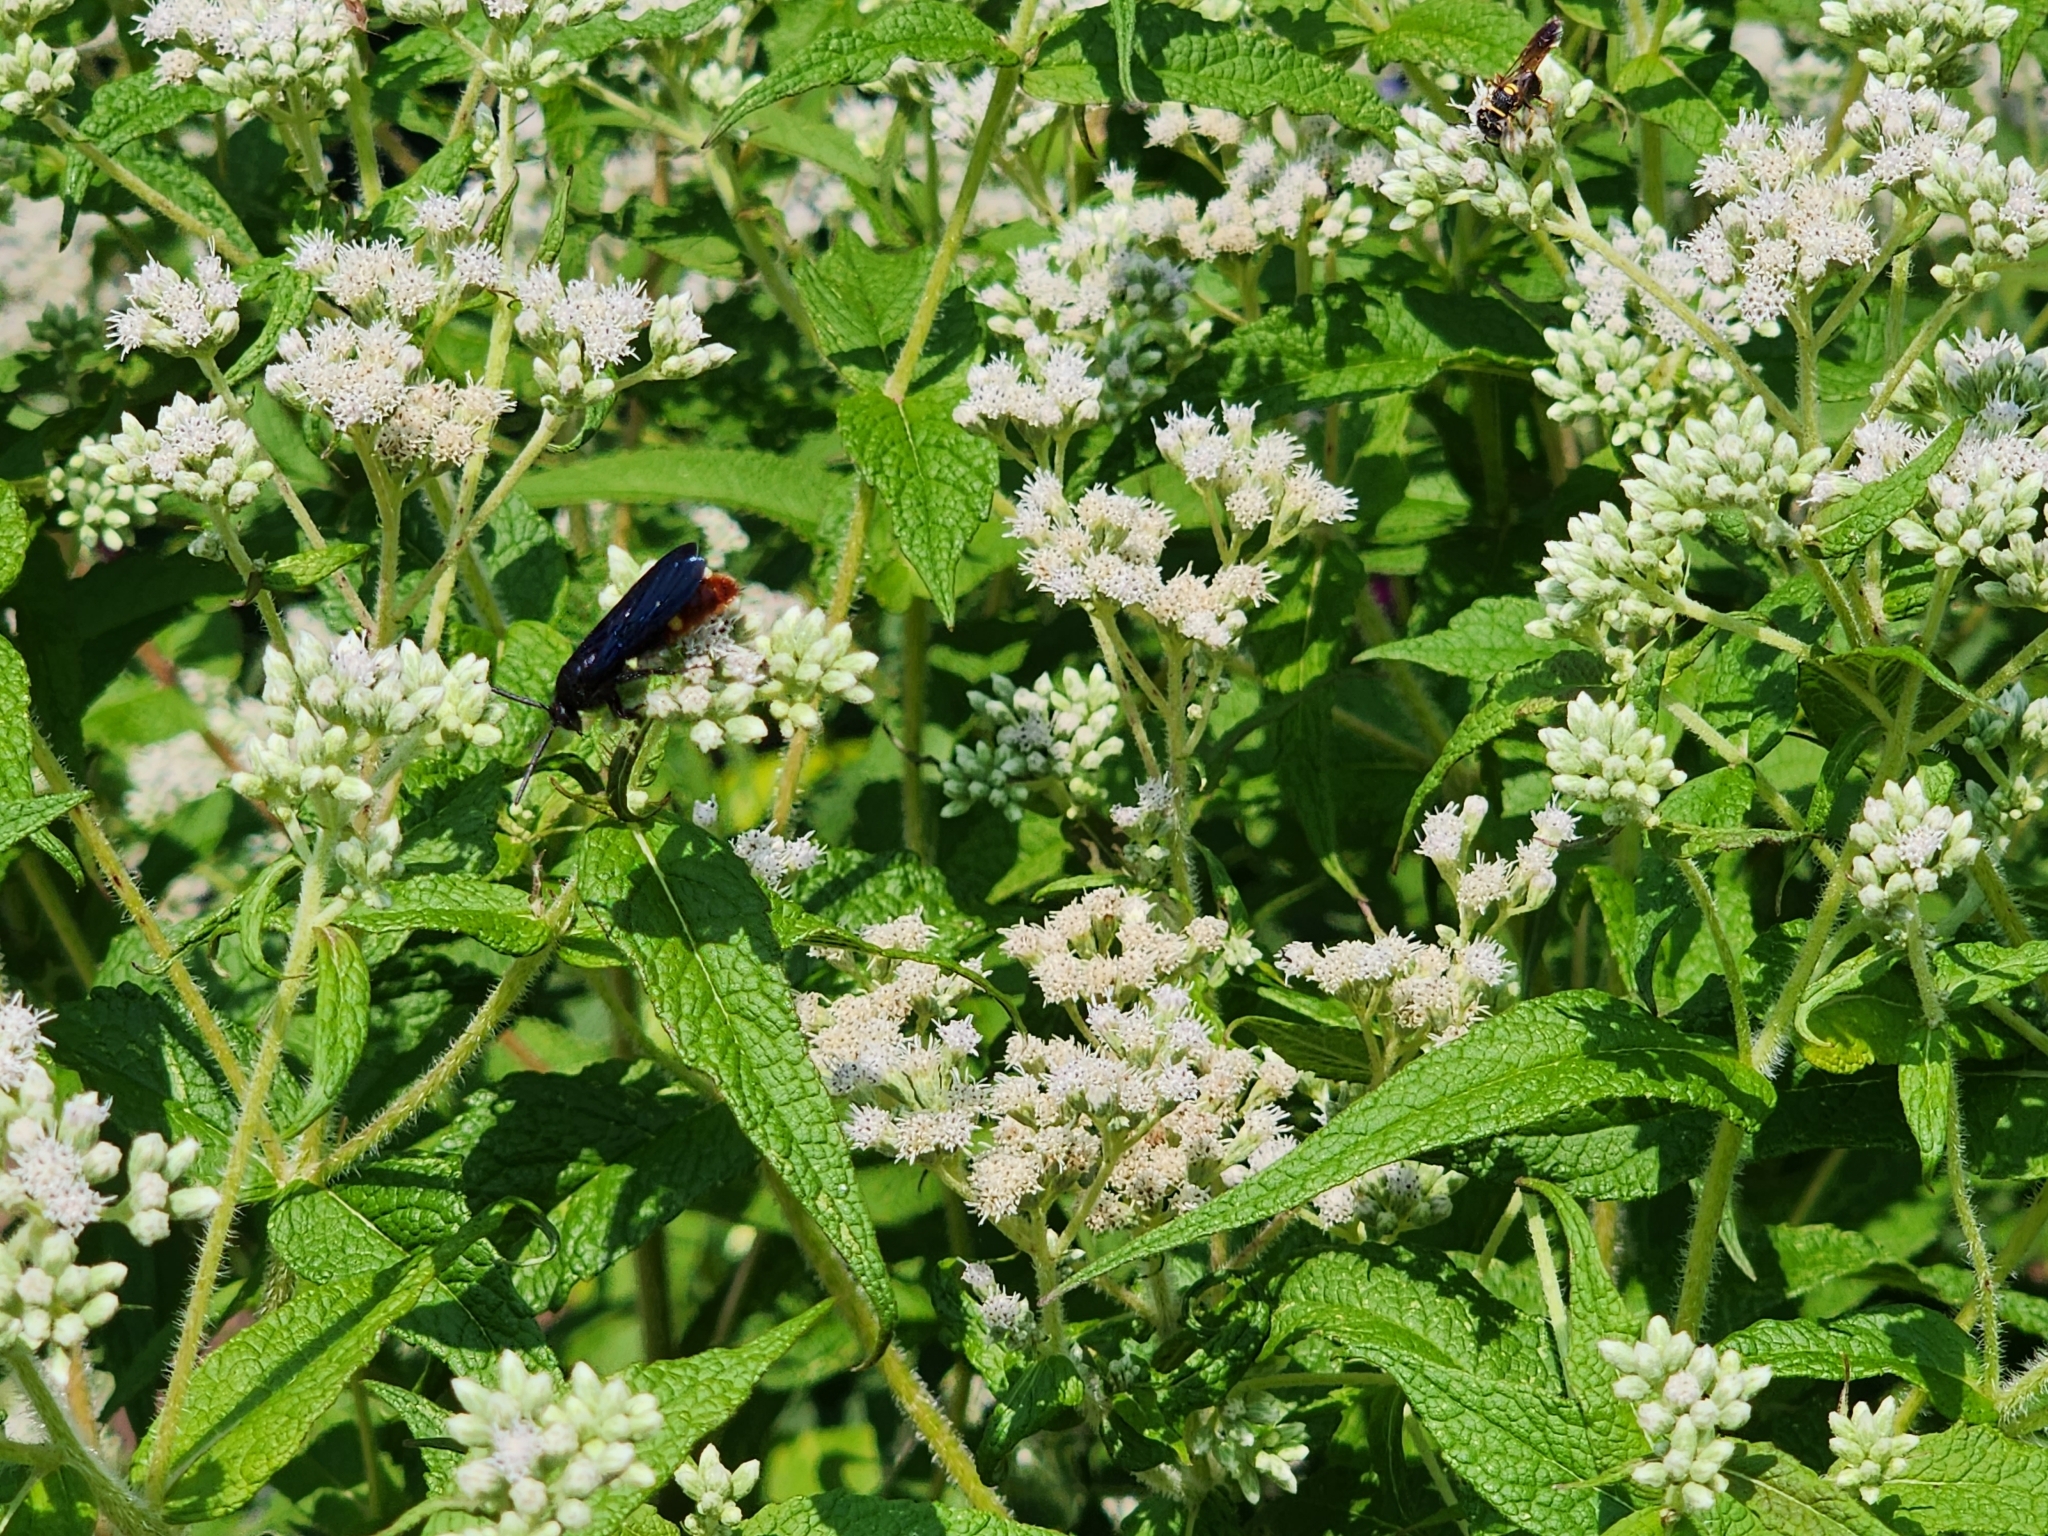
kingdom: Animalia
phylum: Arthropoda
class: Insecta
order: Hymenoptera
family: Scoliidae
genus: Scolia
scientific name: Scolia dubia
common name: Blue-winged scoliid wasp
